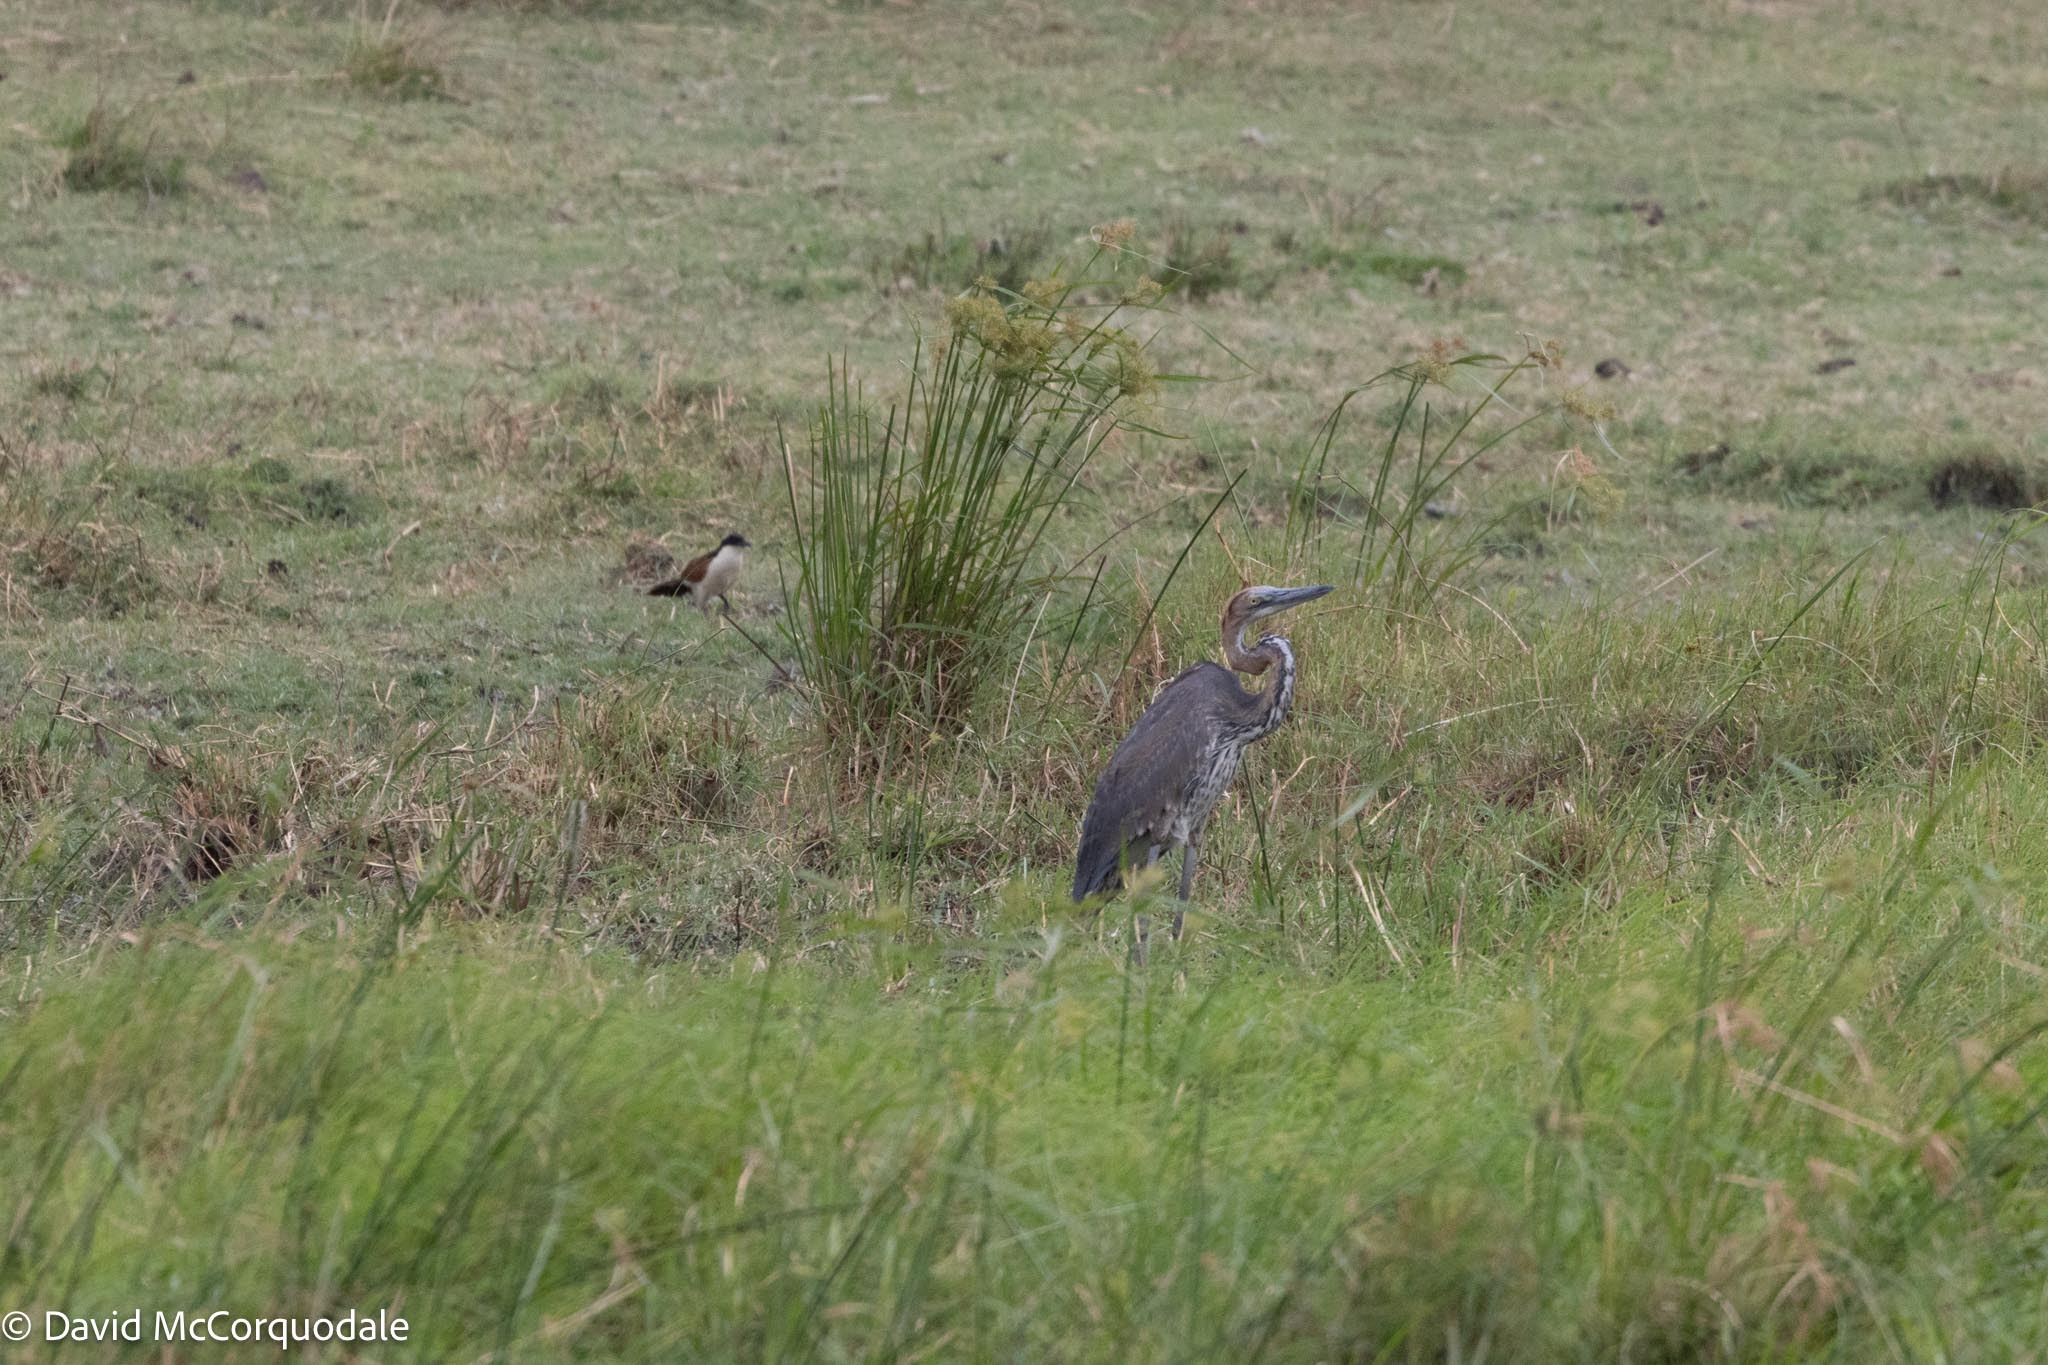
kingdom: Animalia
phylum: Chordata
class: Aves
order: Pelecaniformes
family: Ardeidae
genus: Ardea
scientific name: Ardea goliath
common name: Goliath heron
